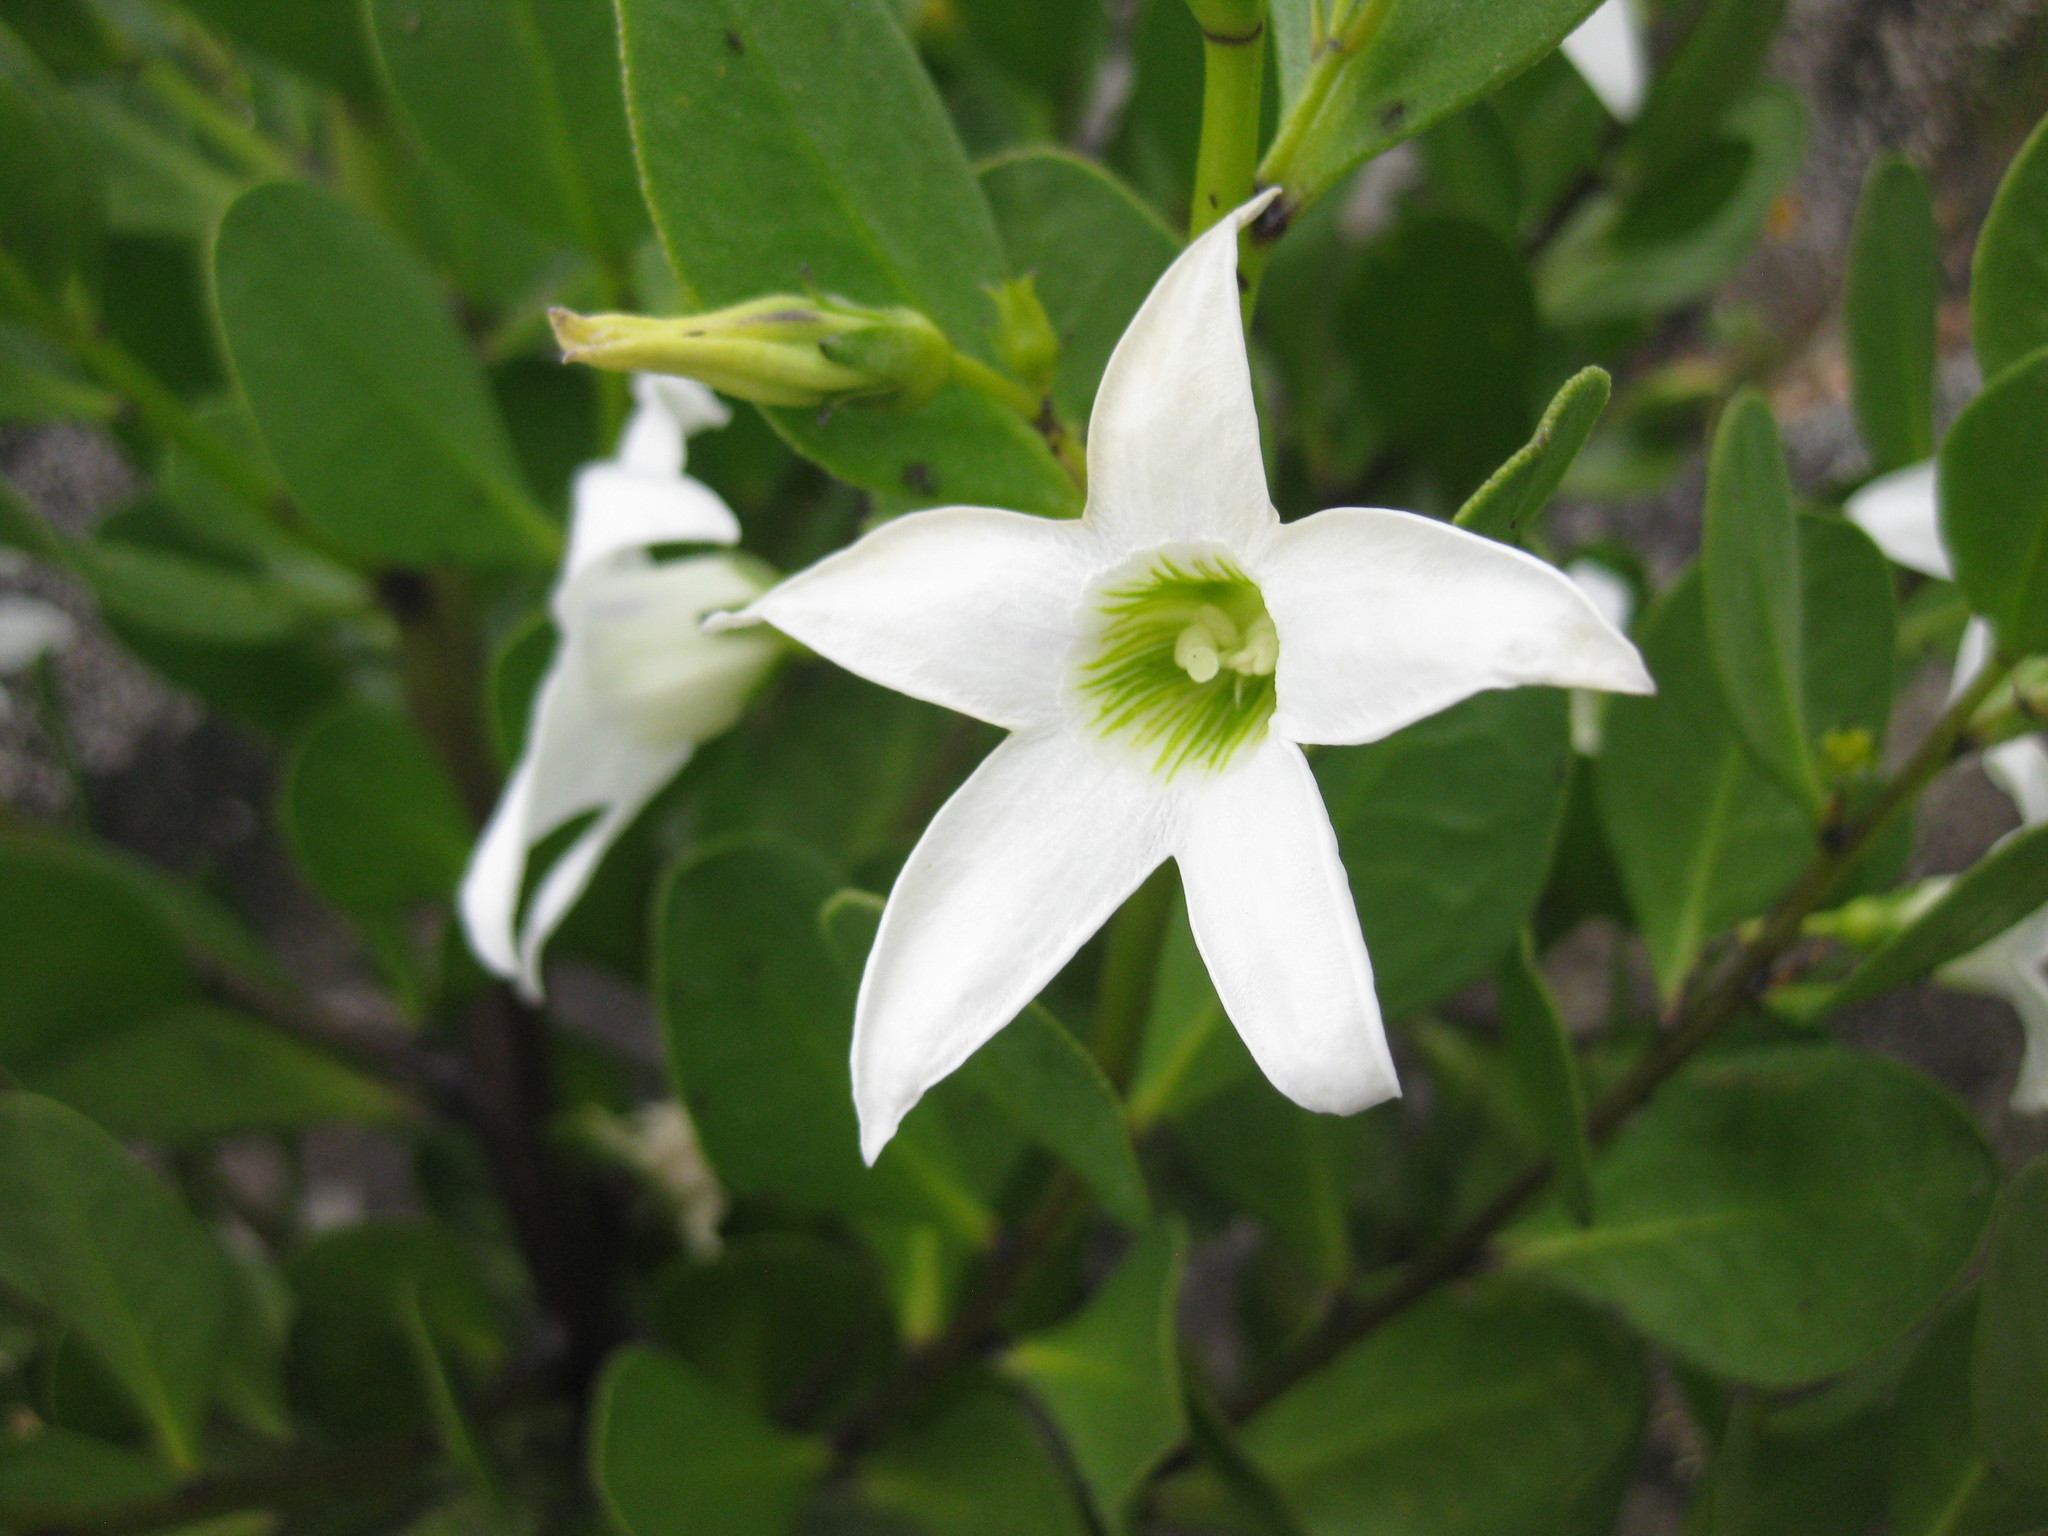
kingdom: Plantae
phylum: Tracheophyta
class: Magnoliopsida
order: Solanales
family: Solanaceae
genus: Anthocercis
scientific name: Anthocercis viscosa
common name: Sticky tailflower
